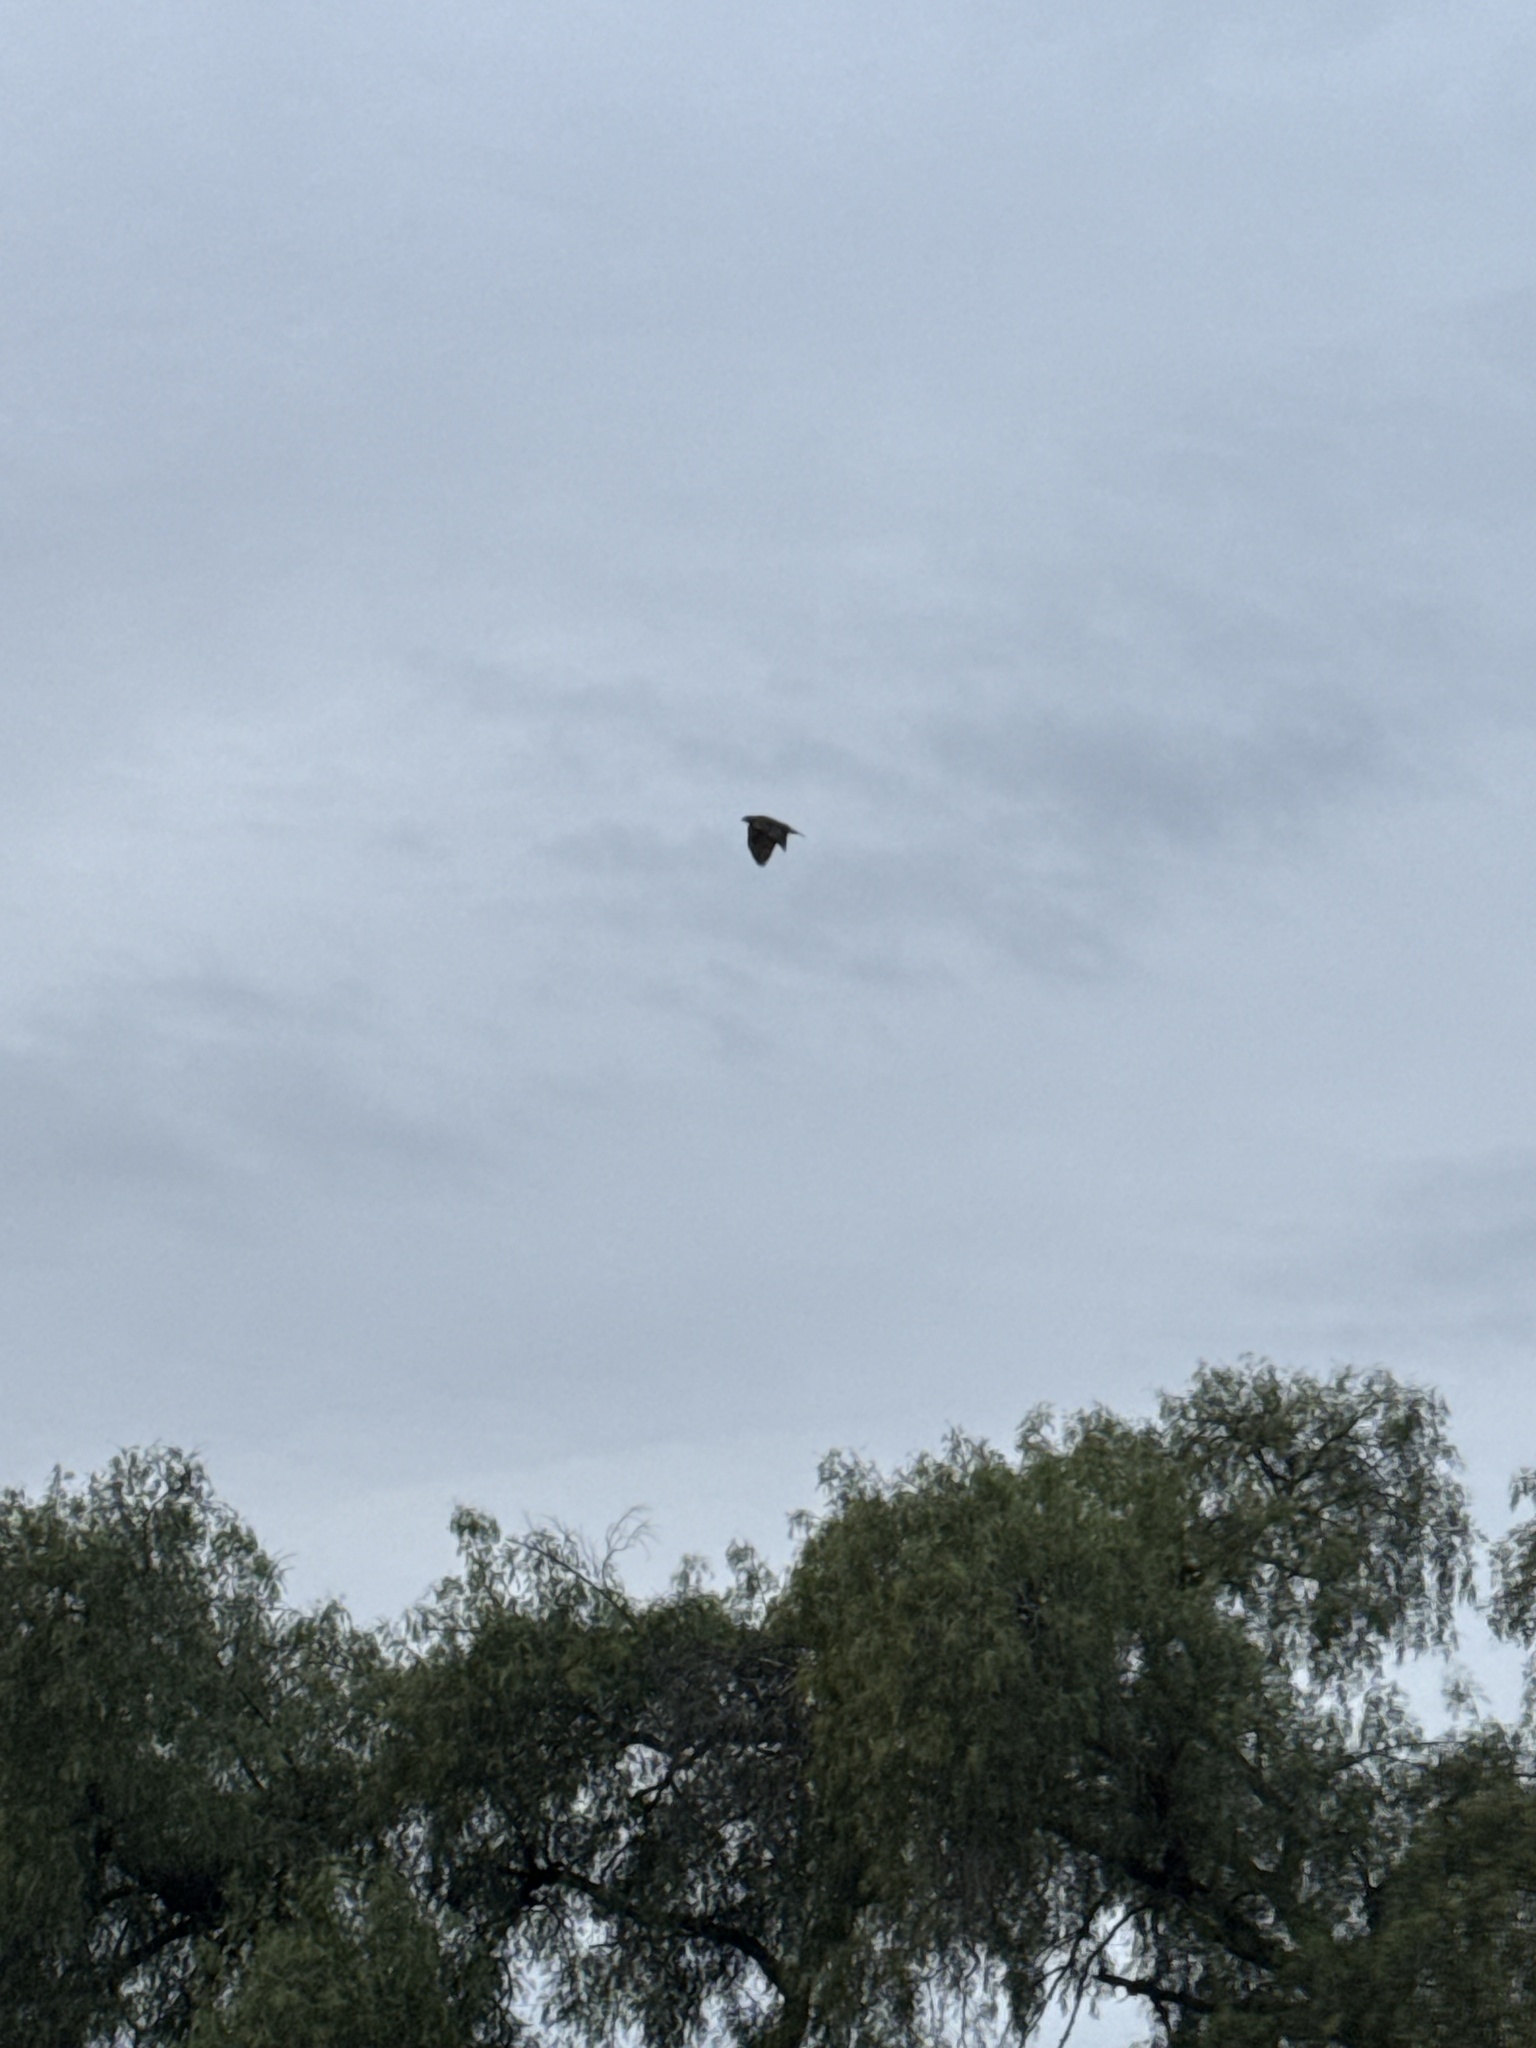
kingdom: Animalia
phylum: Chordata
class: Aves
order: Accipitriformes
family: Accipitridae
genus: Buteo
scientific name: Buteo jamaicensis
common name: Red-tailed hawk
